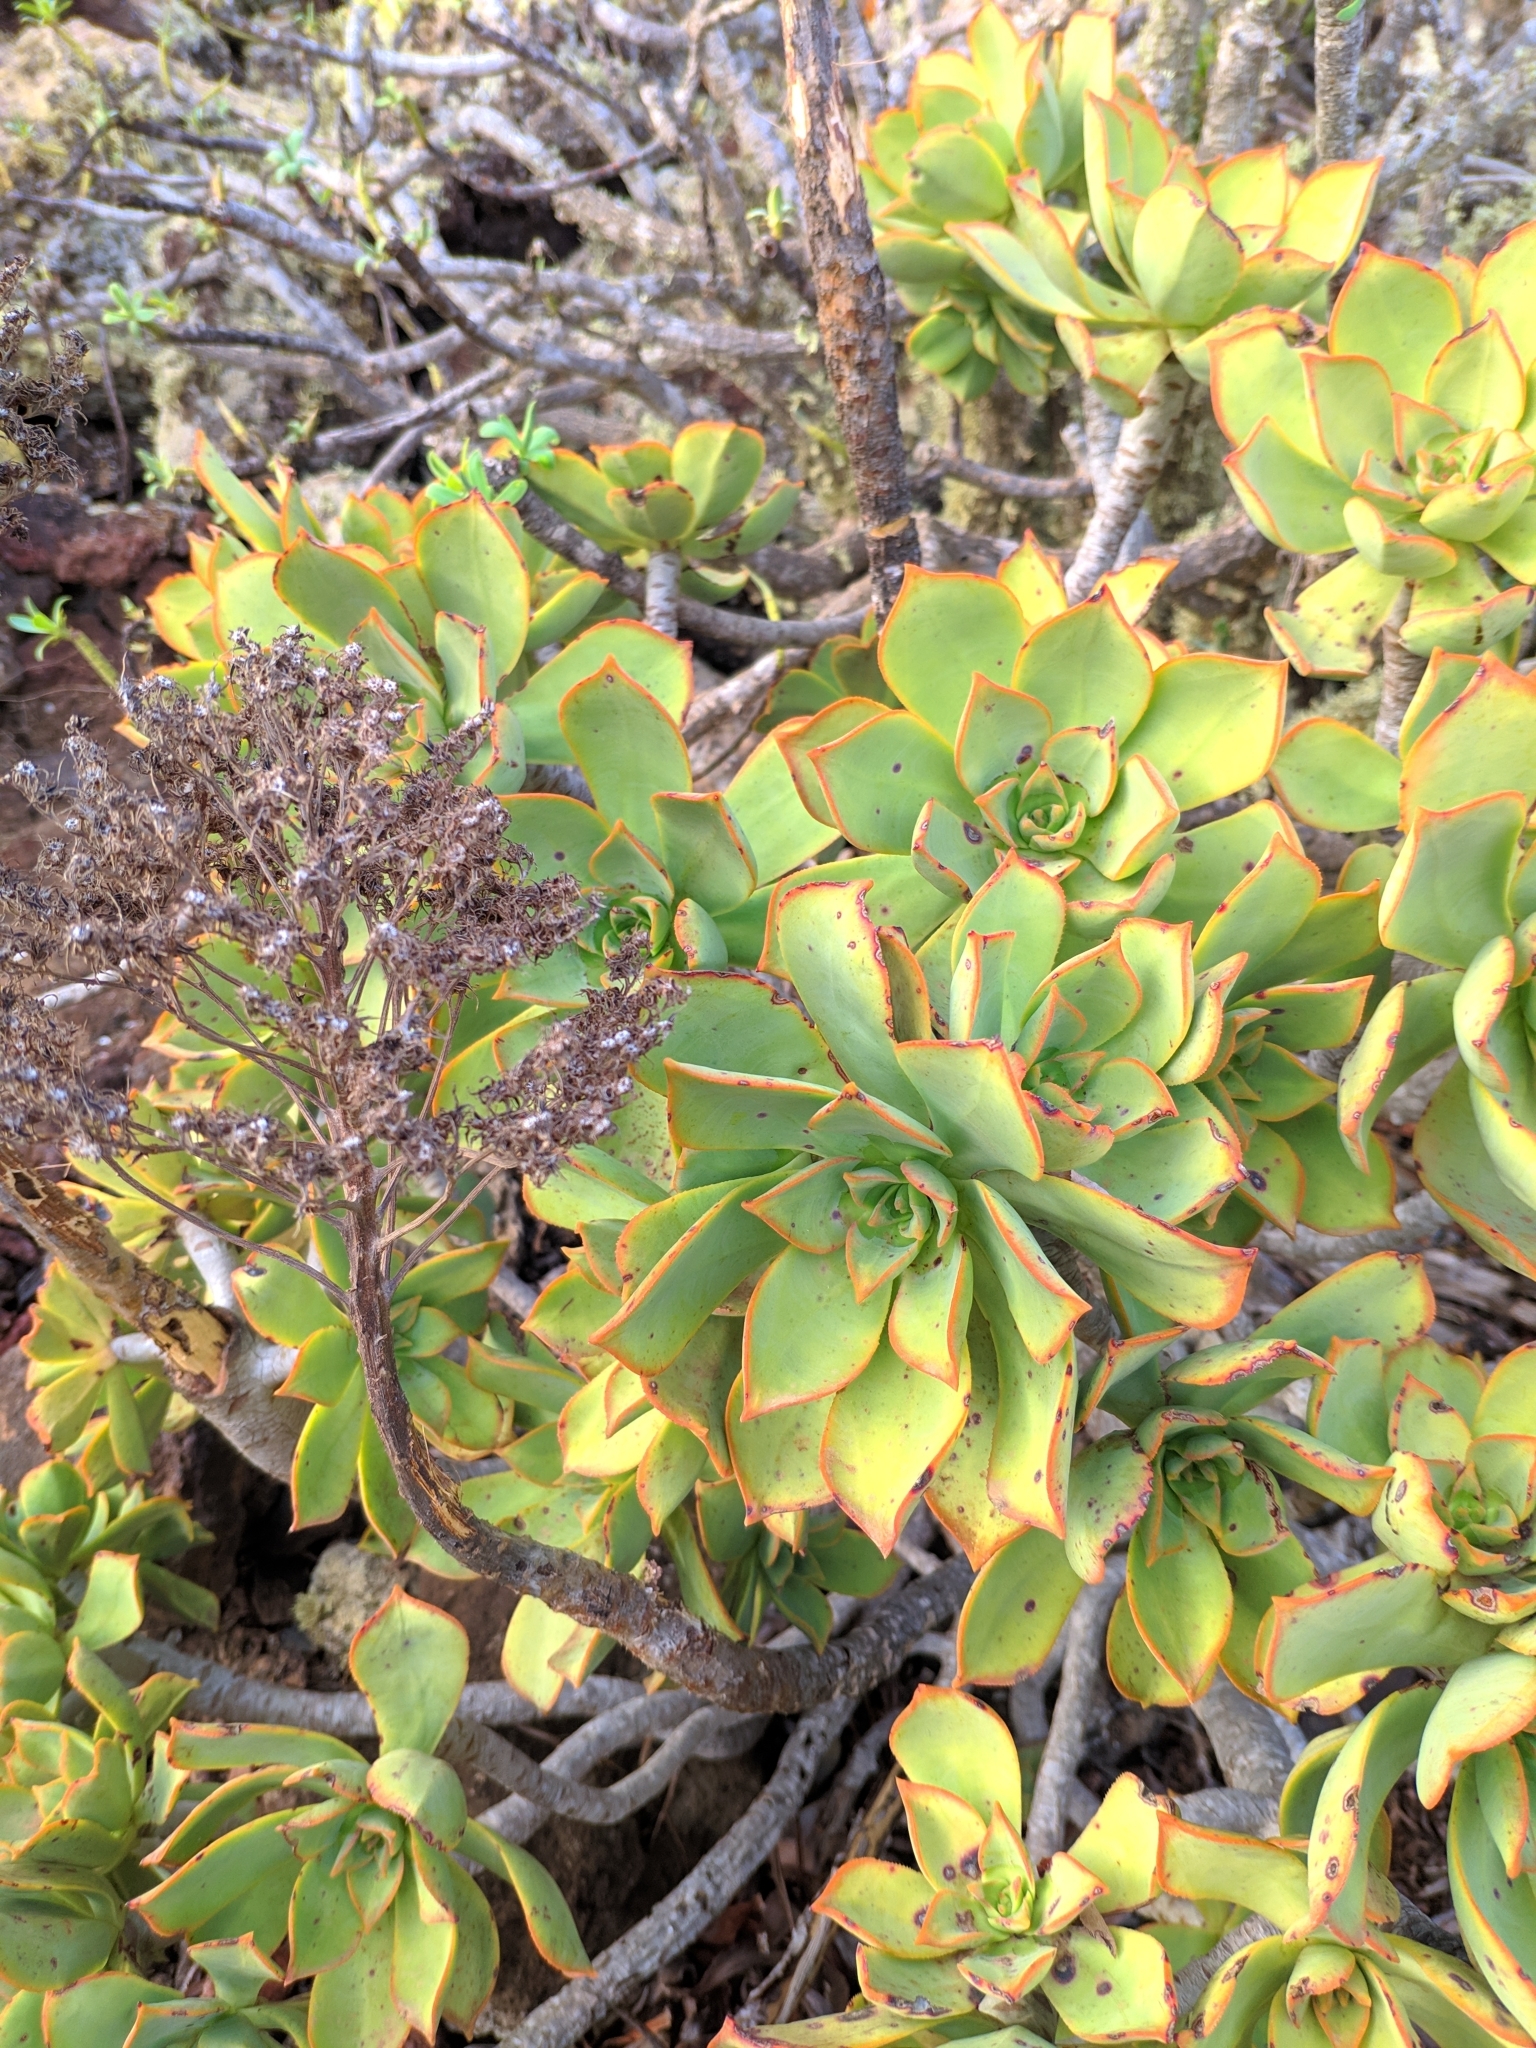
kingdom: Plantae
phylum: Tracheophyta
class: Magnoliopsida
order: Saxifragales
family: Crassulaceae
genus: Aeonium
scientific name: Aeonium lancerottense
